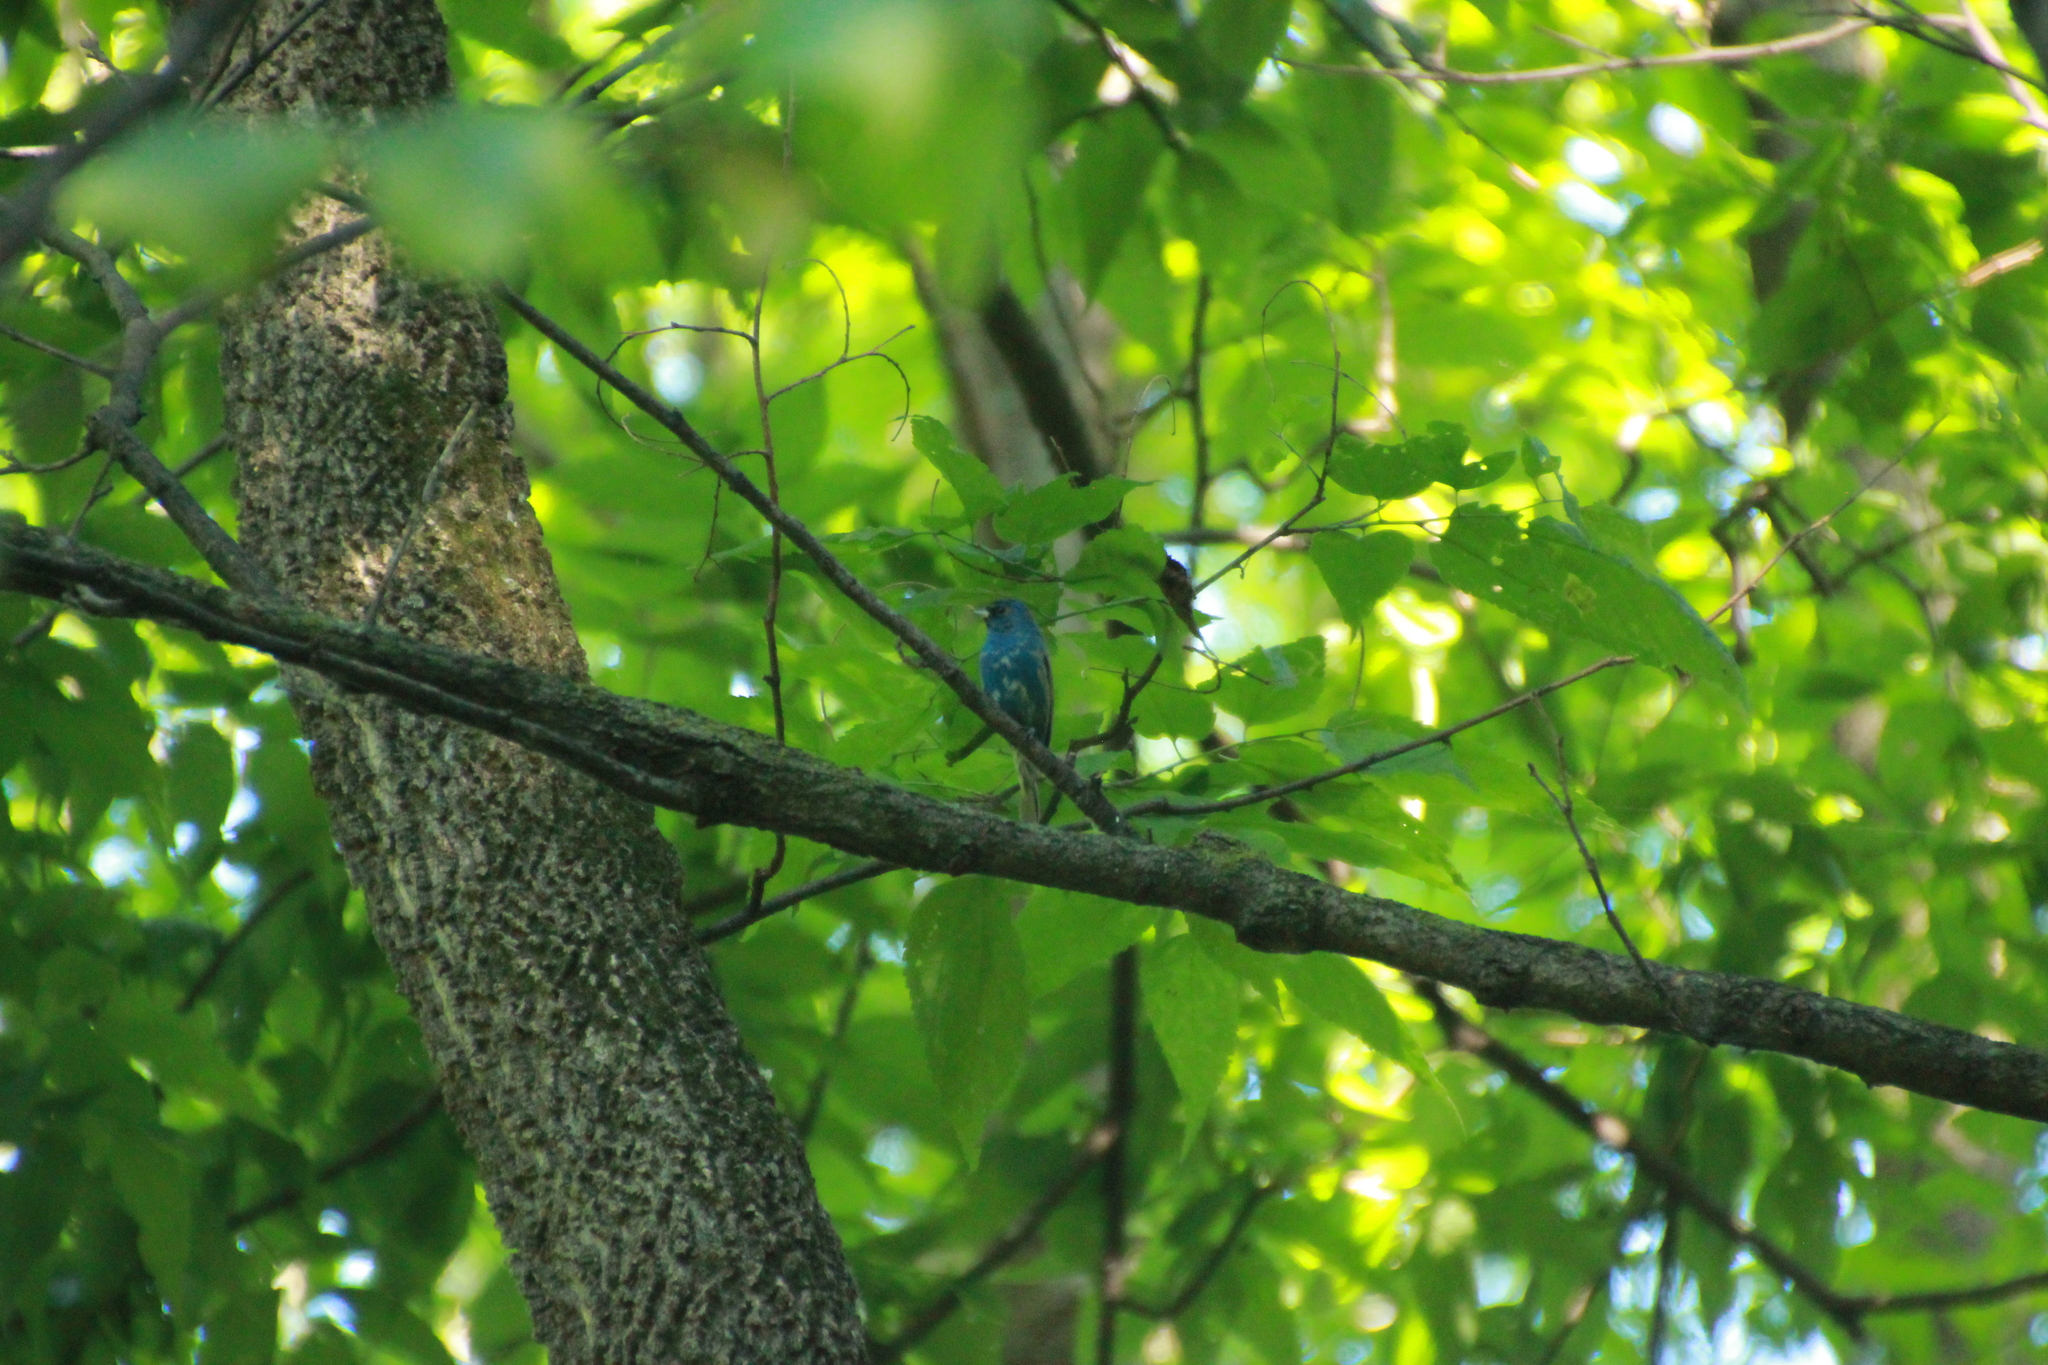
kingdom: Animalia
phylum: Chordata
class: Aves
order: Passeriformes
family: Cardinalidae
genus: Passerina
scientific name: Passerina cyanea
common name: Indigo bunting
